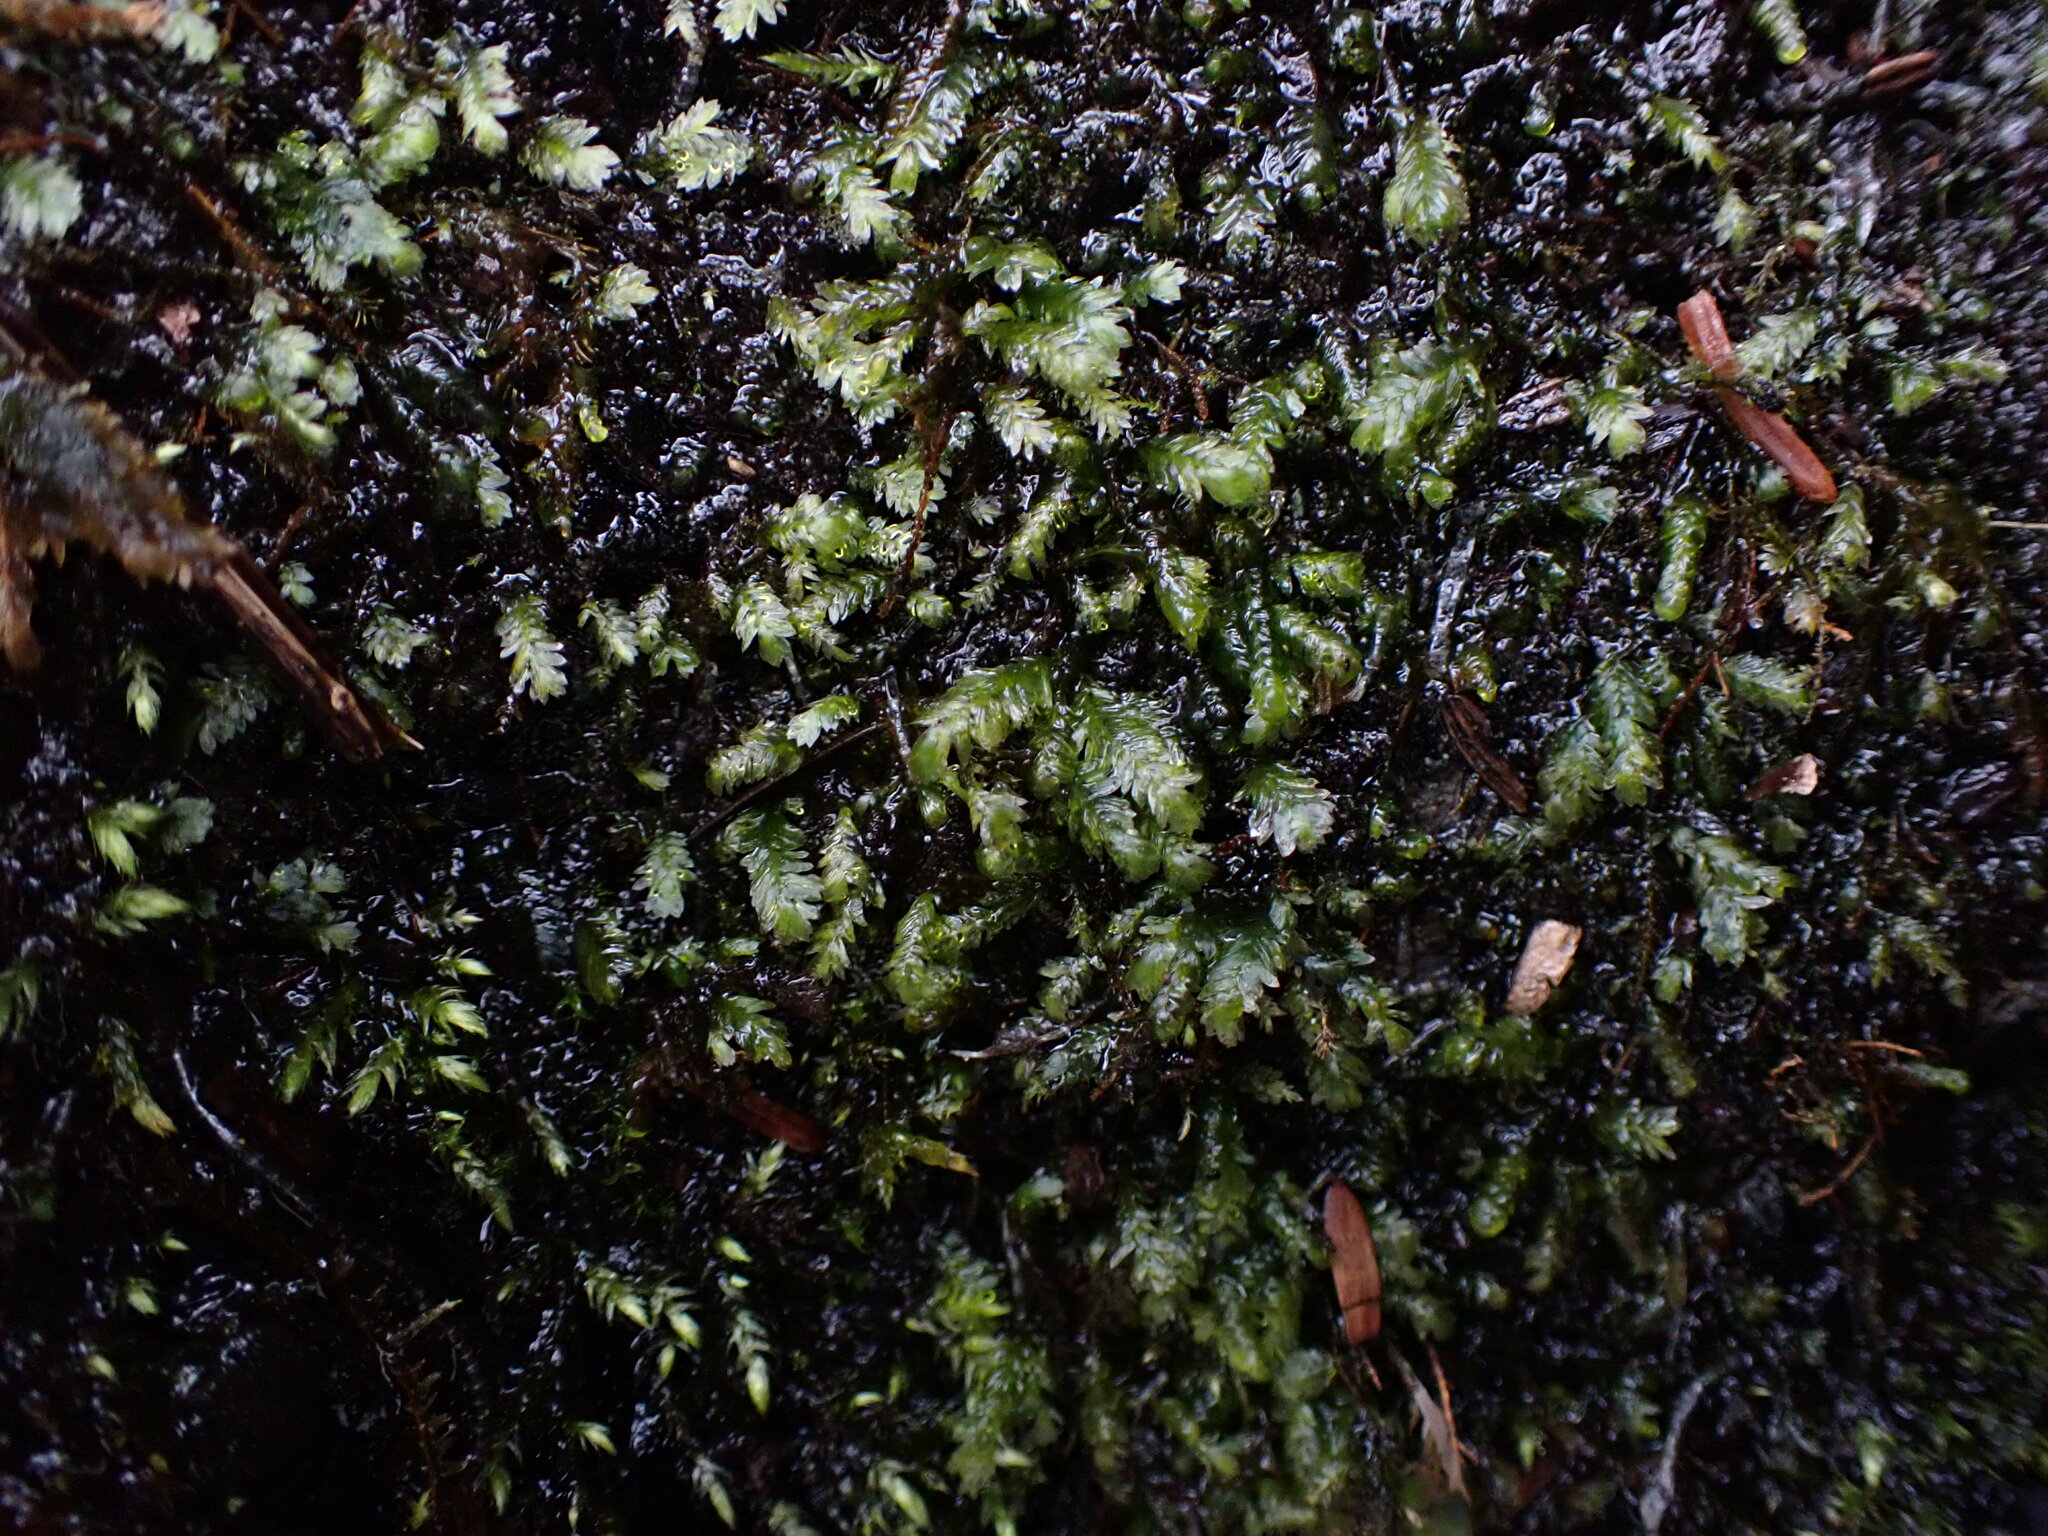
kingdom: Plantae
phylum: Bryophyta
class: Bryopsida
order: Hypnales
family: Neckeraceae
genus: Dannorrisia
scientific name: Dannorrisia bigelovii
